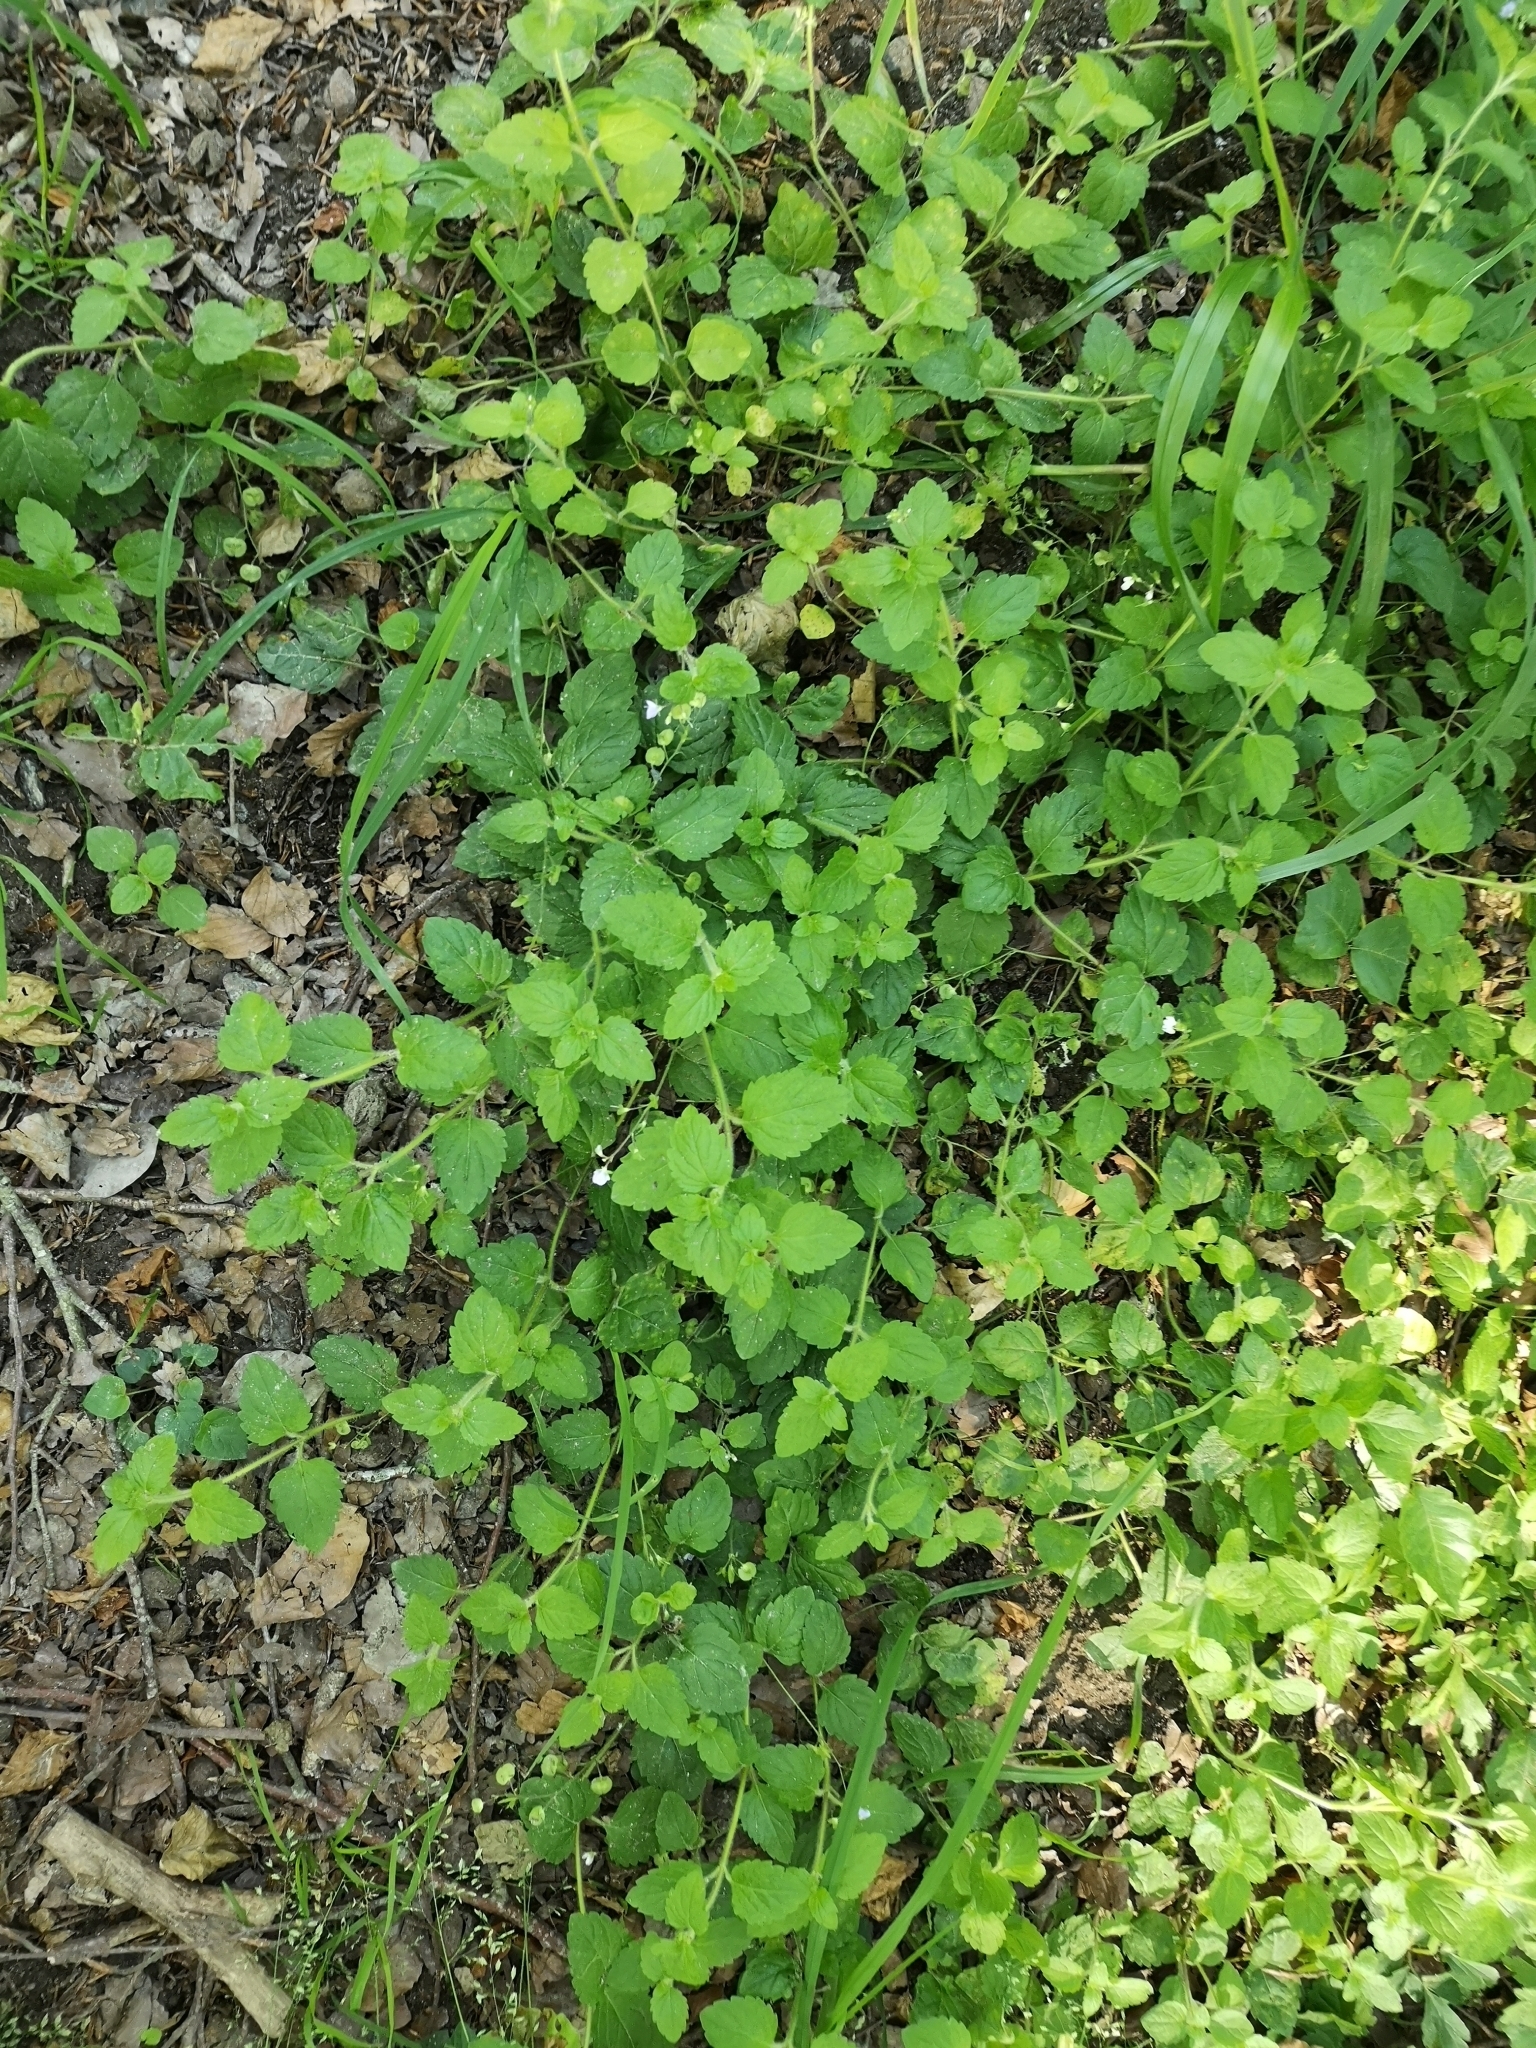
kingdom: Plantae
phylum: Tracheophyta
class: Magnoliopsida
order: Lamiales
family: Plantaginaceae
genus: Veronica
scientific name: Veronica montana
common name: Wood speedwell
